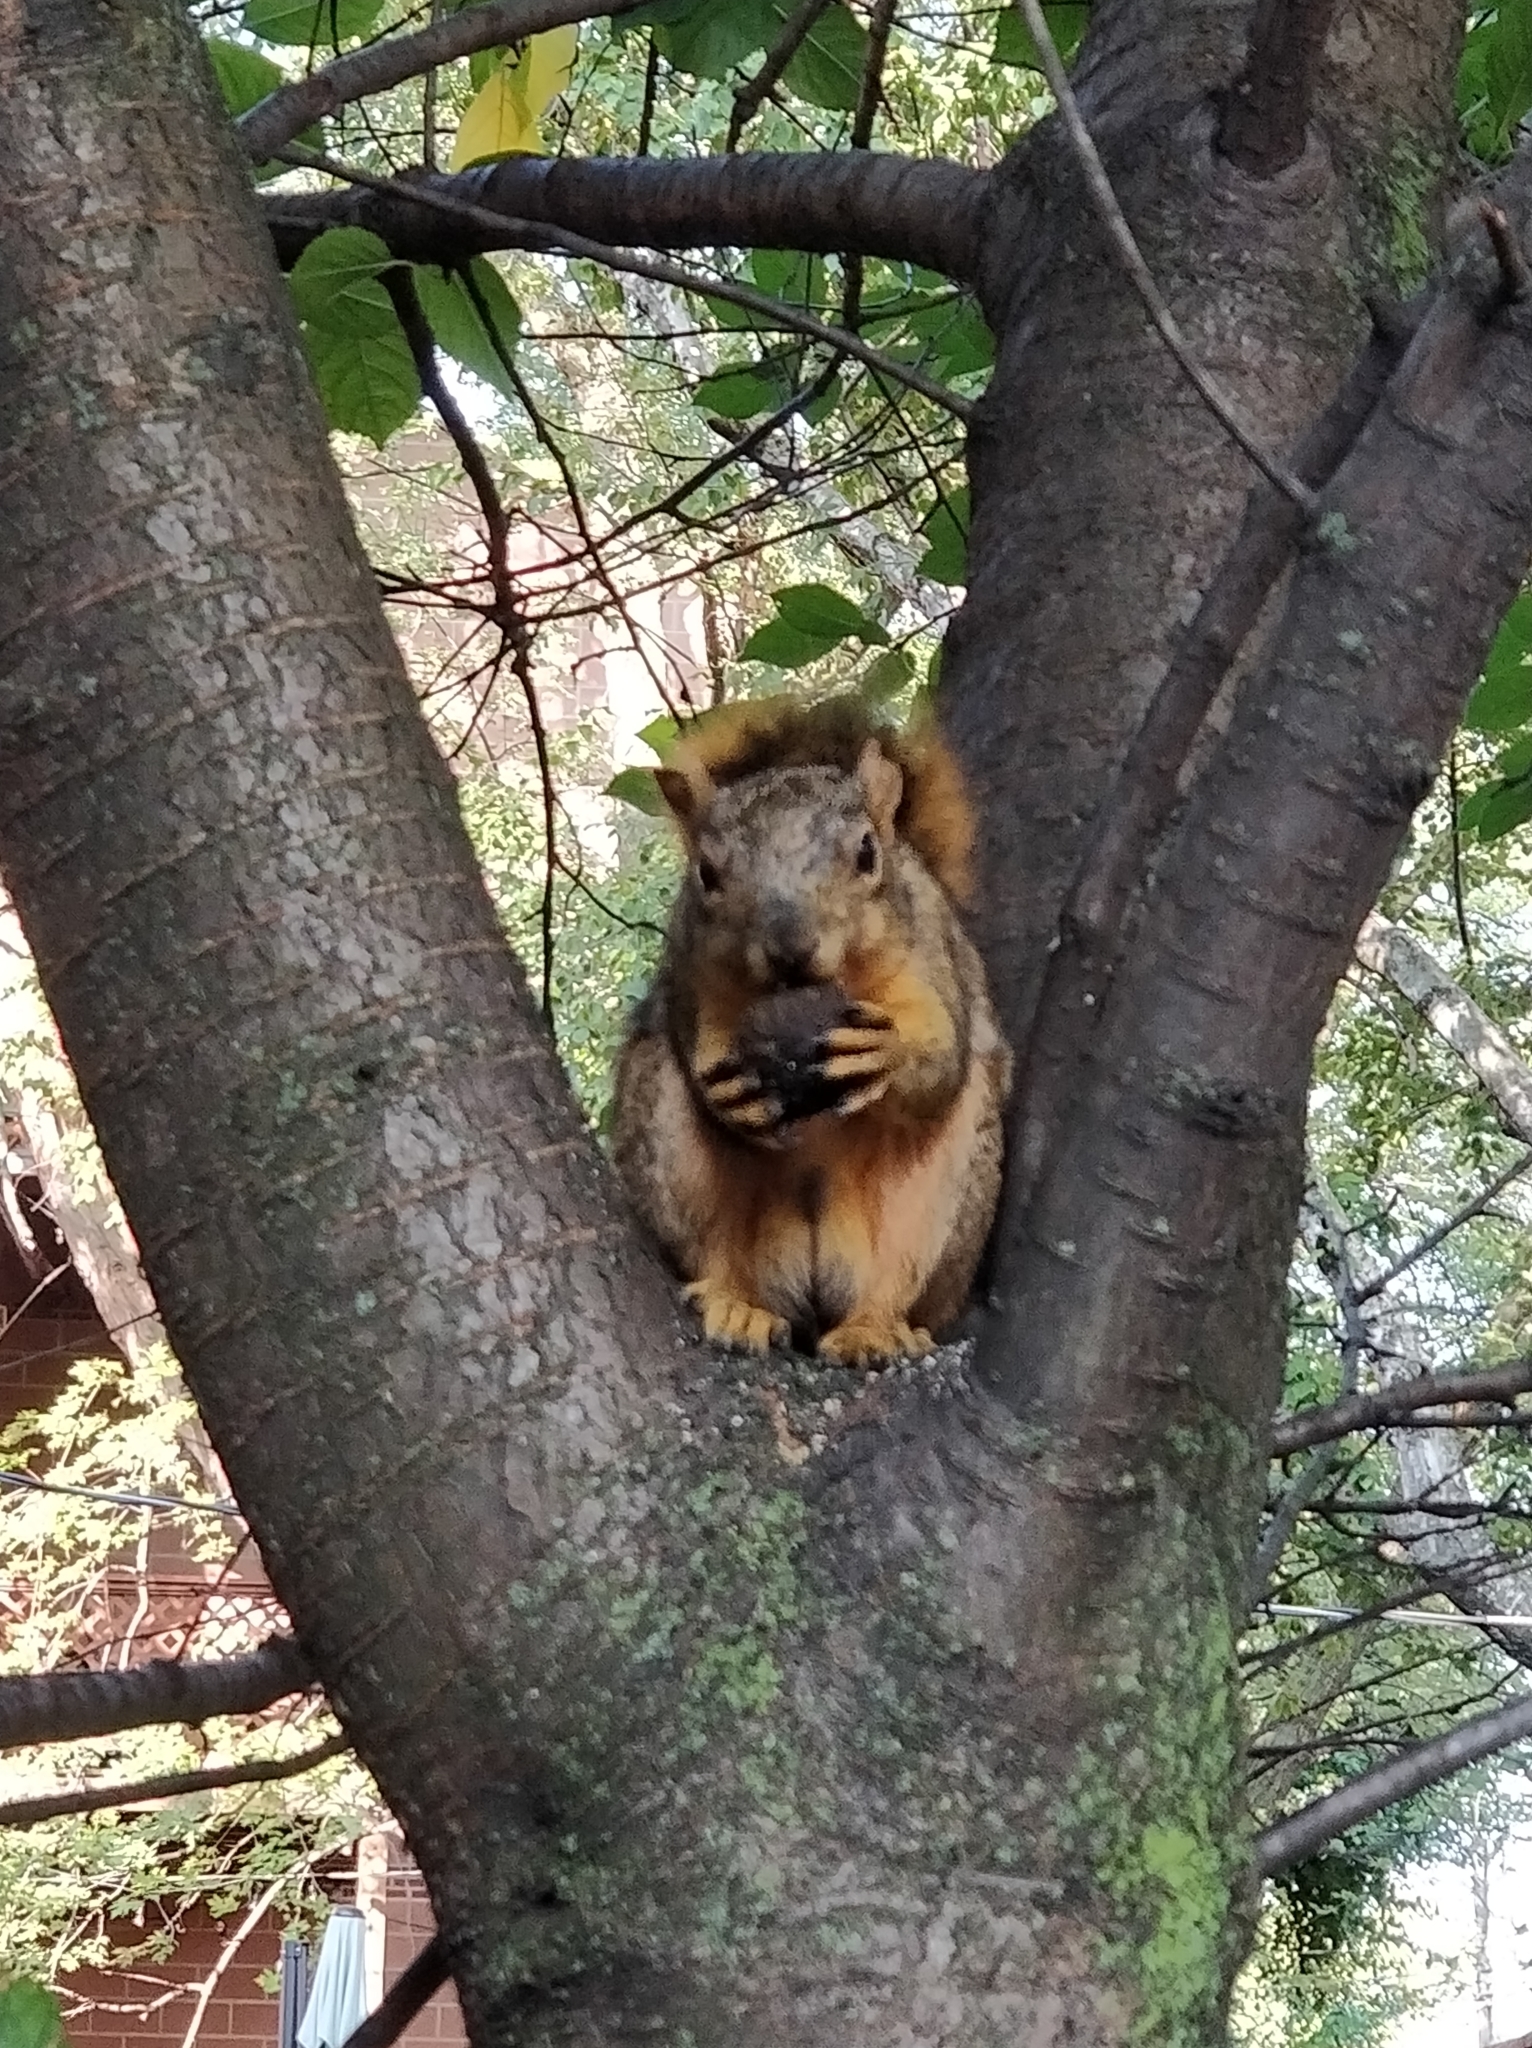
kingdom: Animalia
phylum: Chordata
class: Mammalia
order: Rodentia
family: Sciuridae
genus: Sciurus
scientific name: Sciurus niger
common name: Fox squirrel
